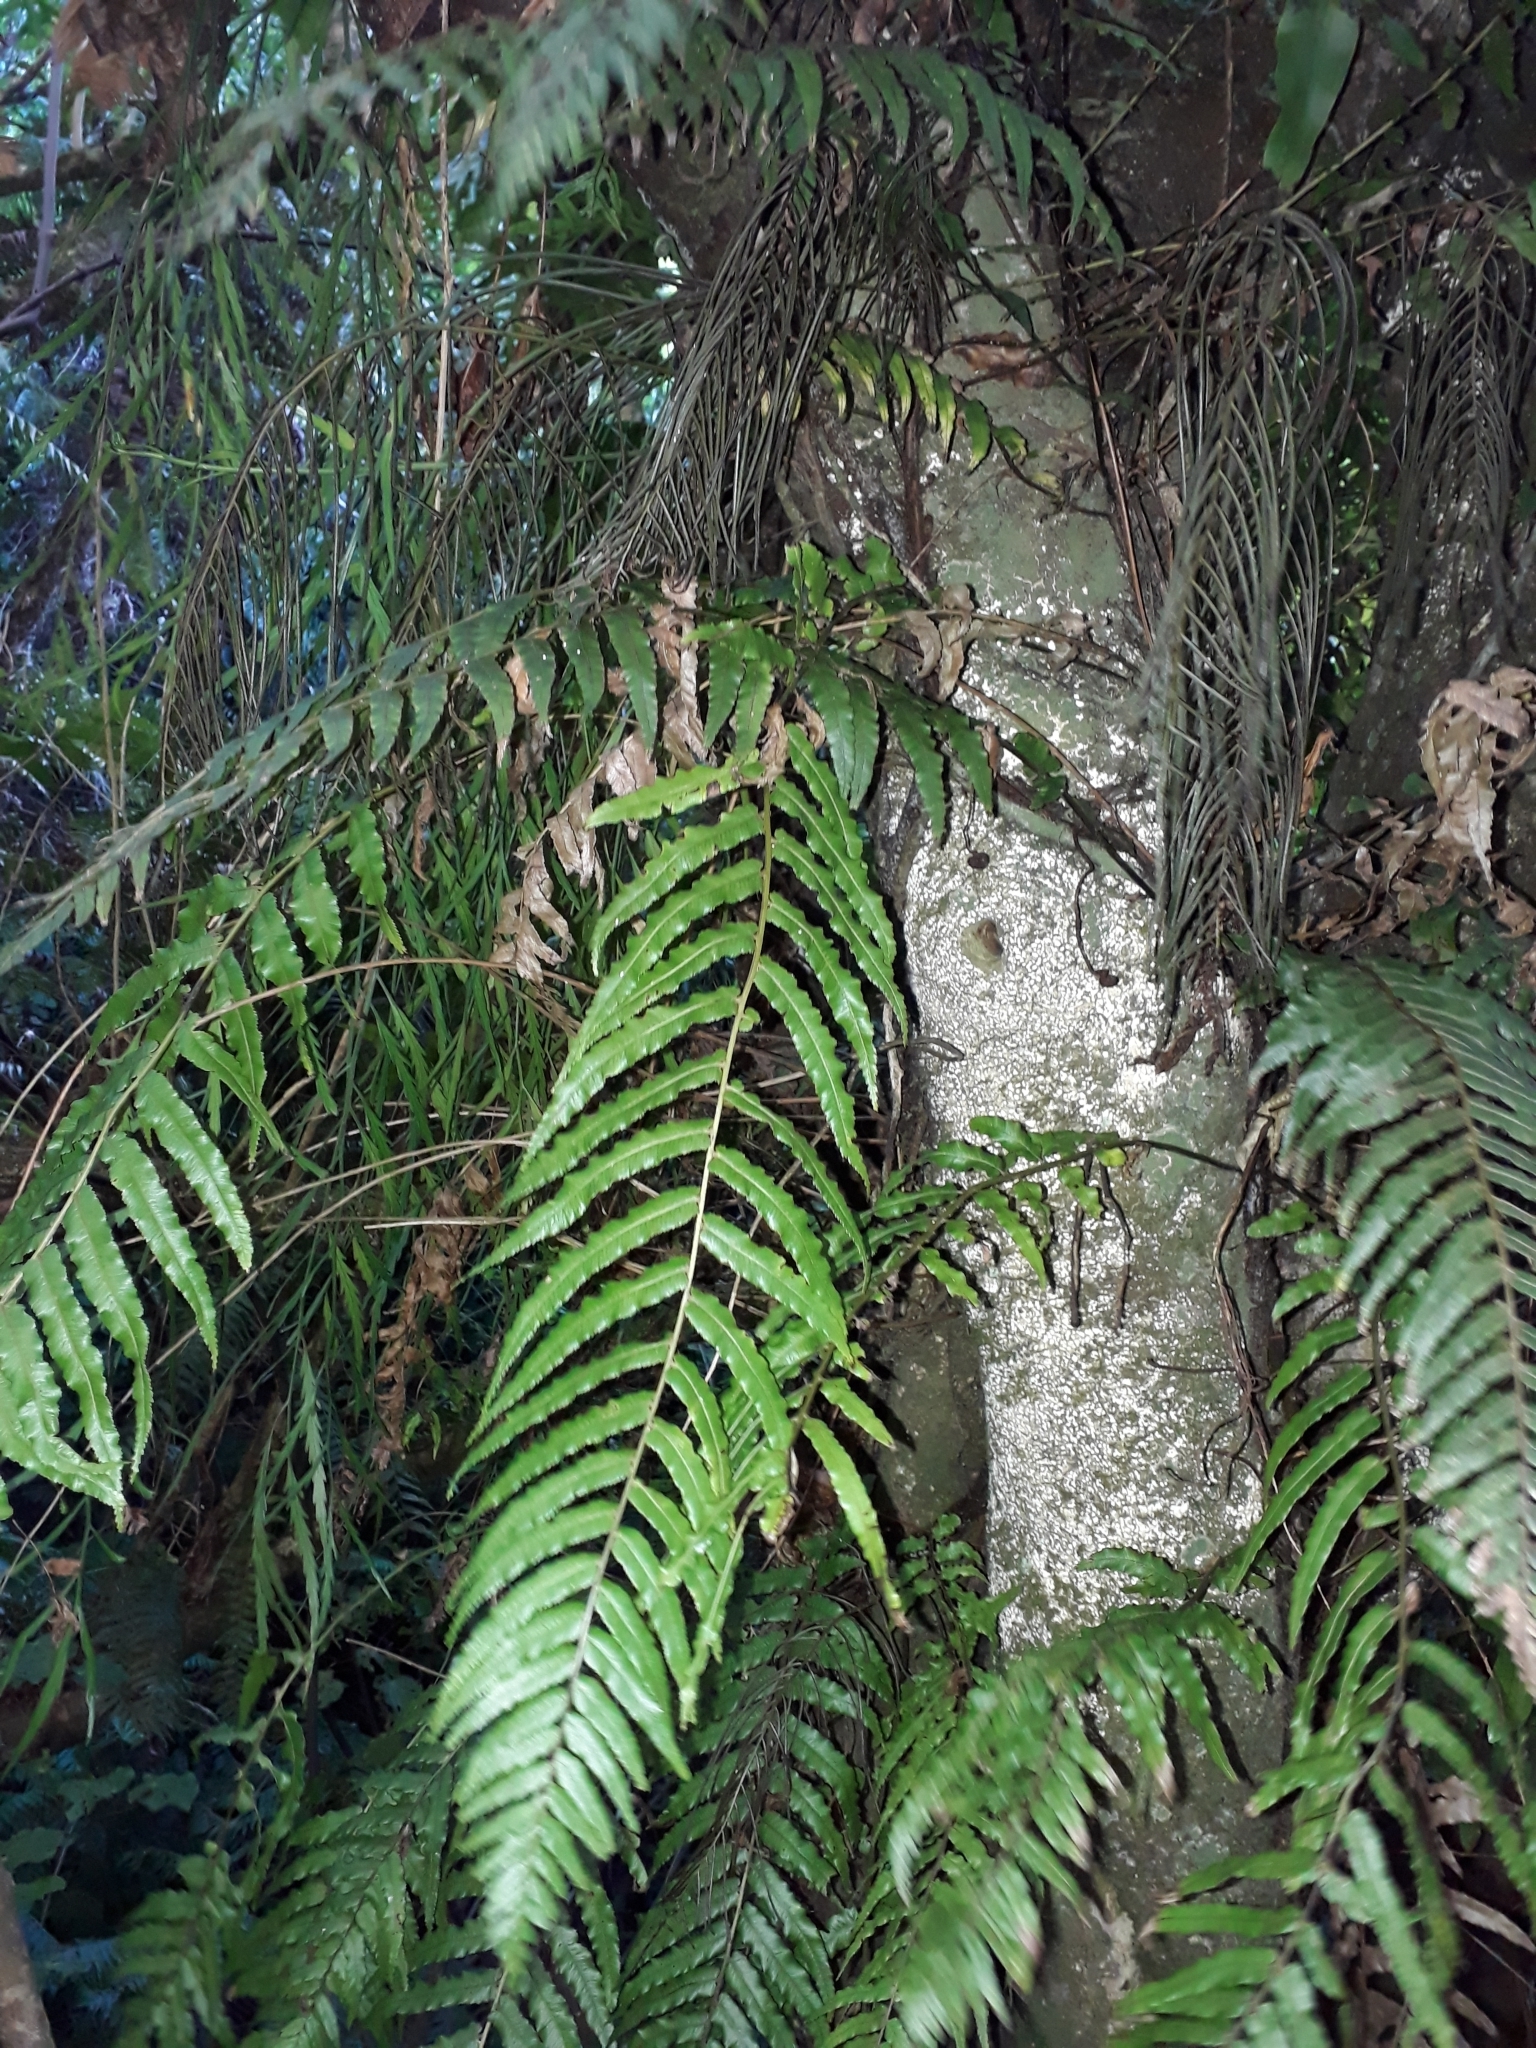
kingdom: Plantae
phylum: Tracheophyta
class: Polypodiopsida
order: Polypodiales
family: Blechnaceae
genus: Icarus
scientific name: Icarus filiformis
